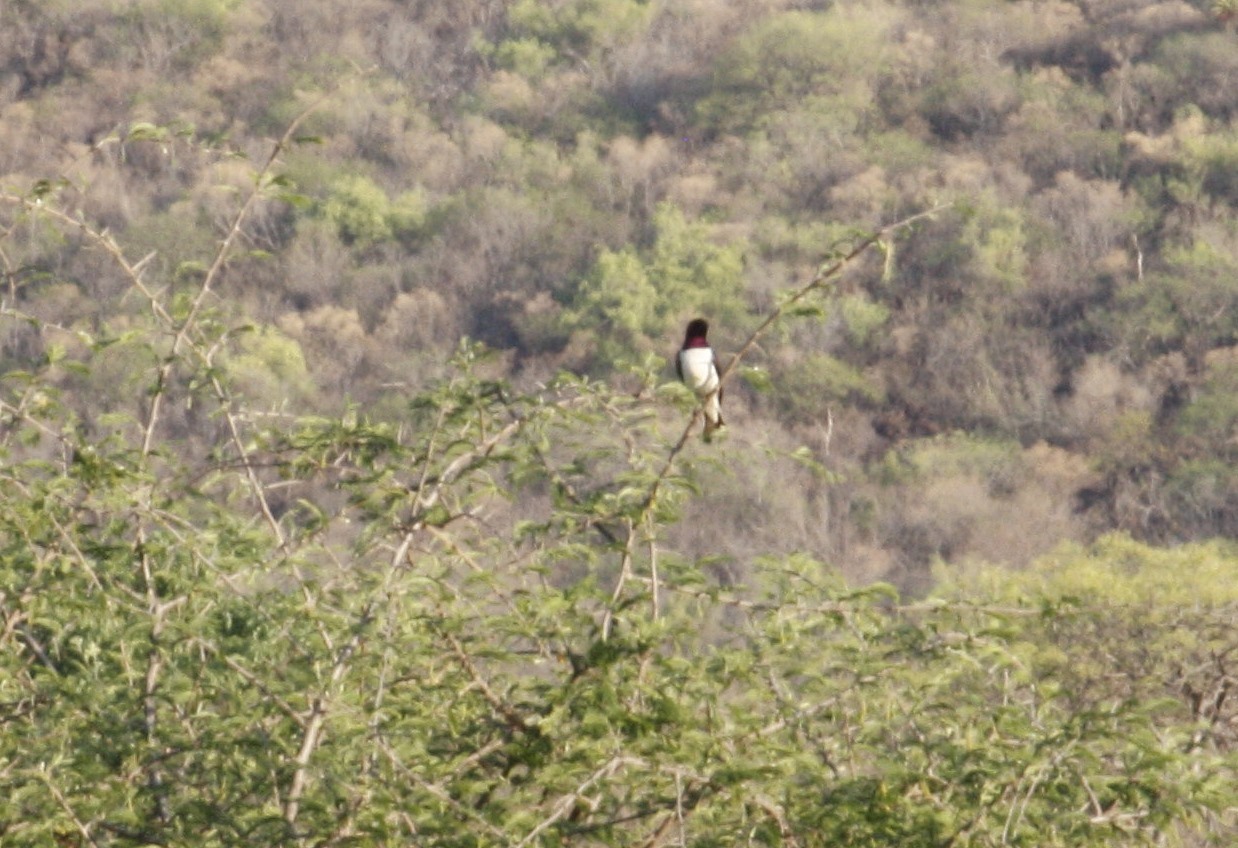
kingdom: Animalia
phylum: Chordata
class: Aves
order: Passeriformes
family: Sturnidae
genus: Cinnyricinclus
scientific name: Cinnyricinclus leucogaster
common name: Violet-backed starling
